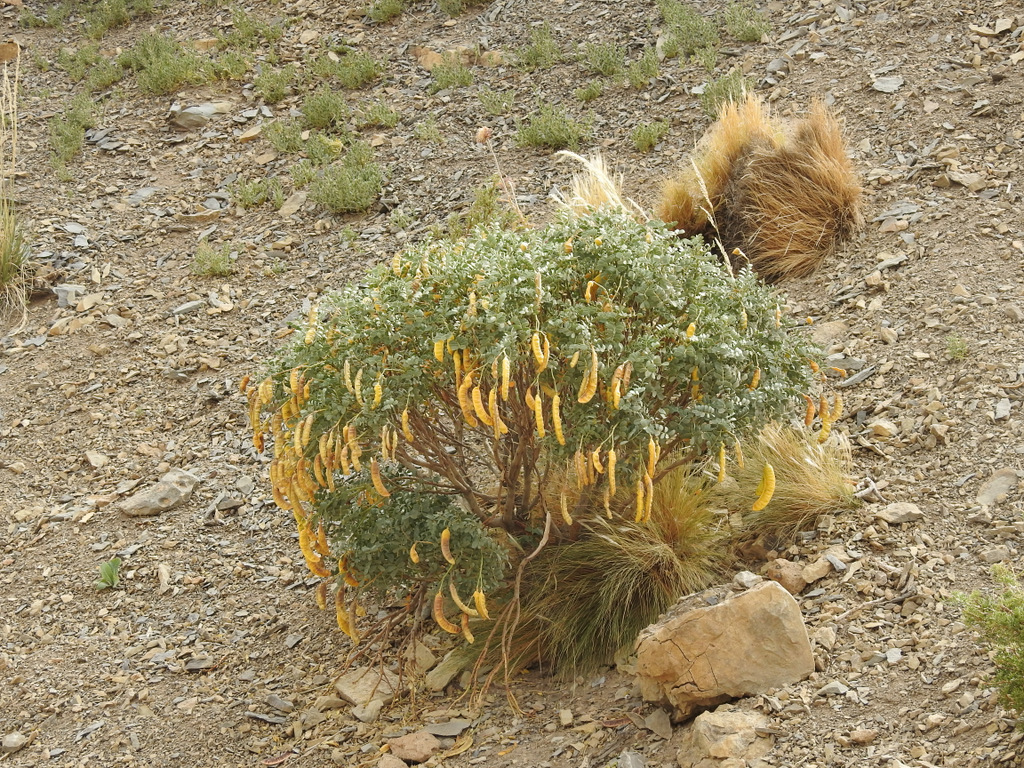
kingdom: Plantae
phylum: Tracheophyta
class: Magnoliopsida
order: Fabales
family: Fabaceae
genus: Senna
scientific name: Senna arnottiana
